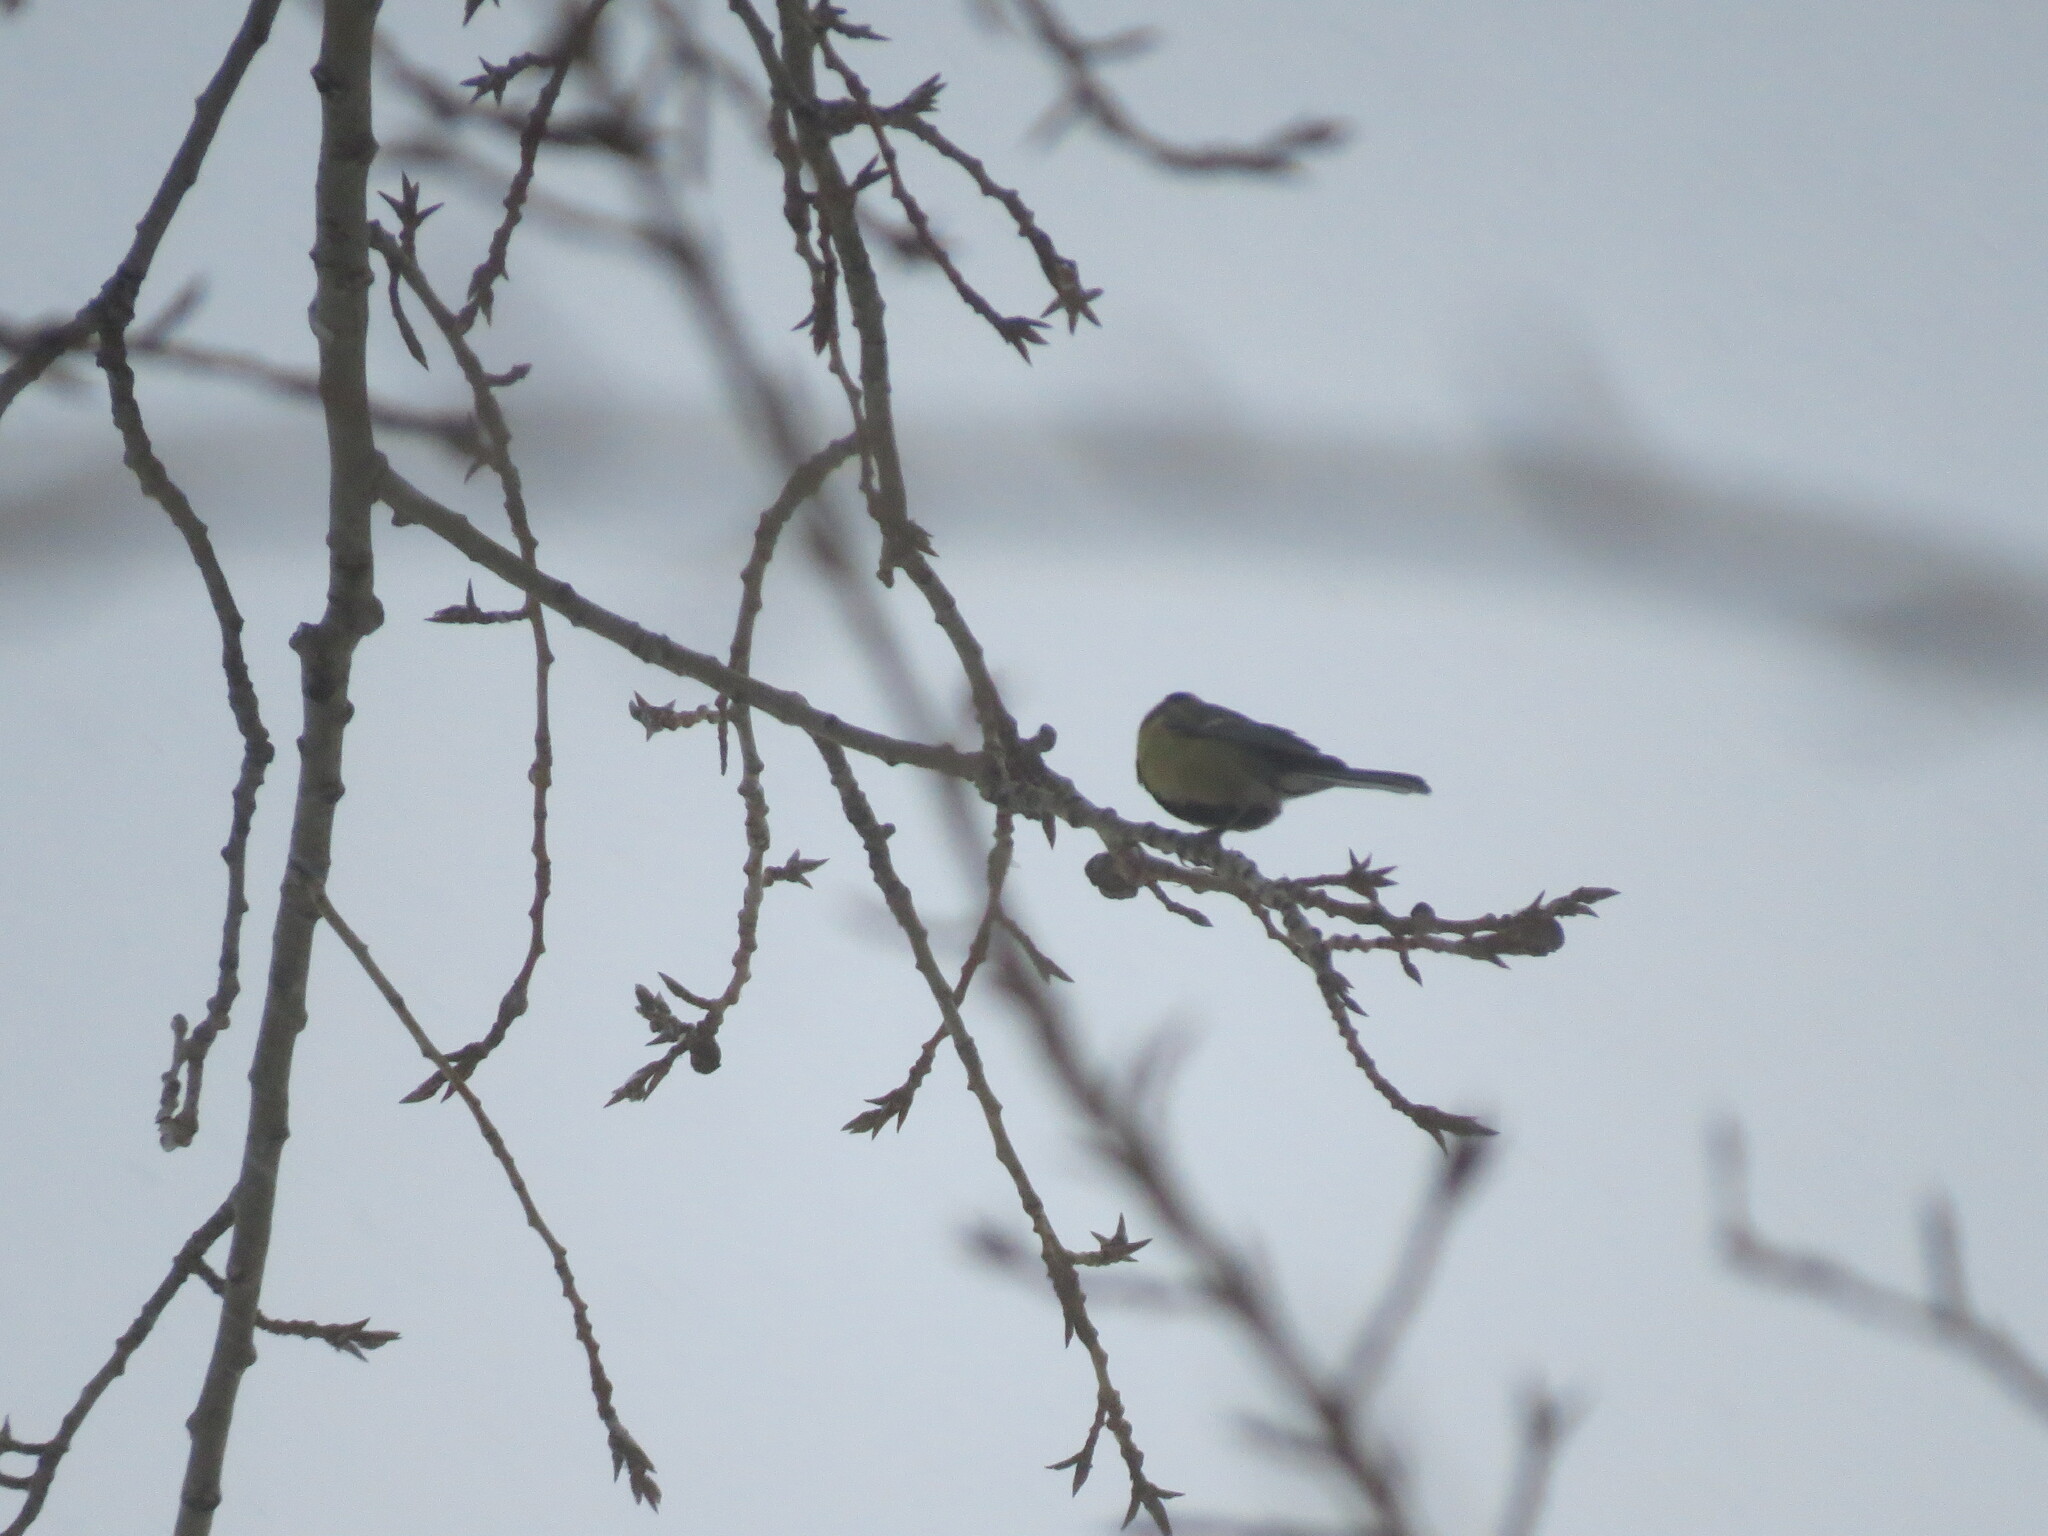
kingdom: Animalia
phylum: Chordata
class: Aves
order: Passeriformes
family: Paridae
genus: Parus
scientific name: Parus major
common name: Great tit
